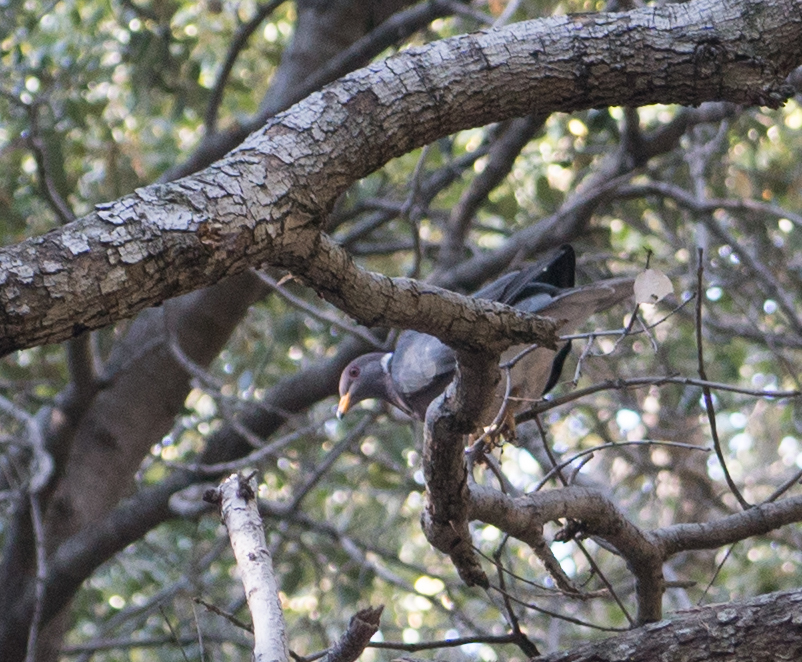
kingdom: Animalia
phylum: Chordata
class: Aves
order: Columbiformes
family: Columbidae
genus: Patagioenas
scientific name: Patagioenas fasciata
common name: Band-tailed pigeon
